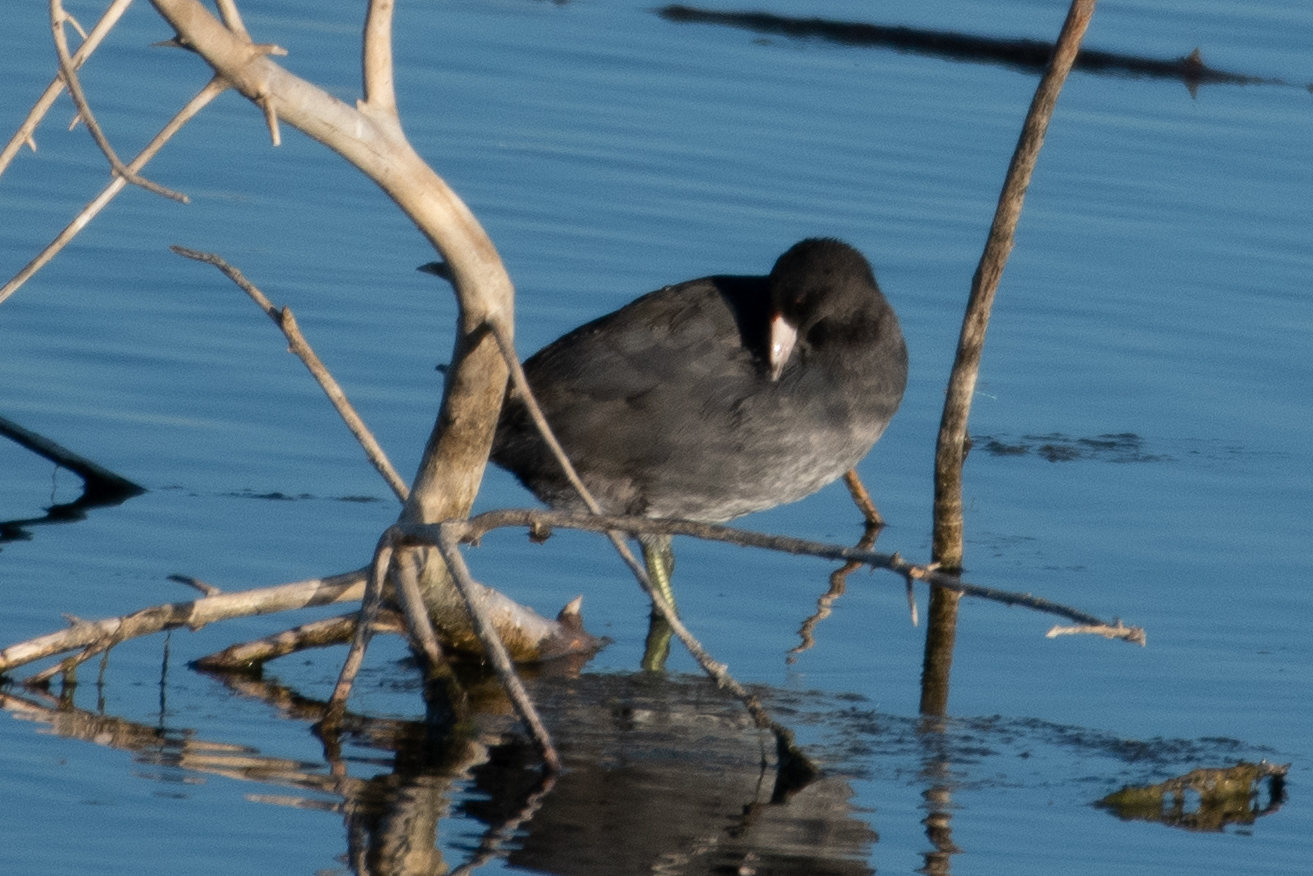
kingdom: Animalia
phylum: Chordata
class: Aves
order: Gruiformes
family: Rallidae
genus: Fulica
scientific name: Fulica americana
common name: American coot
